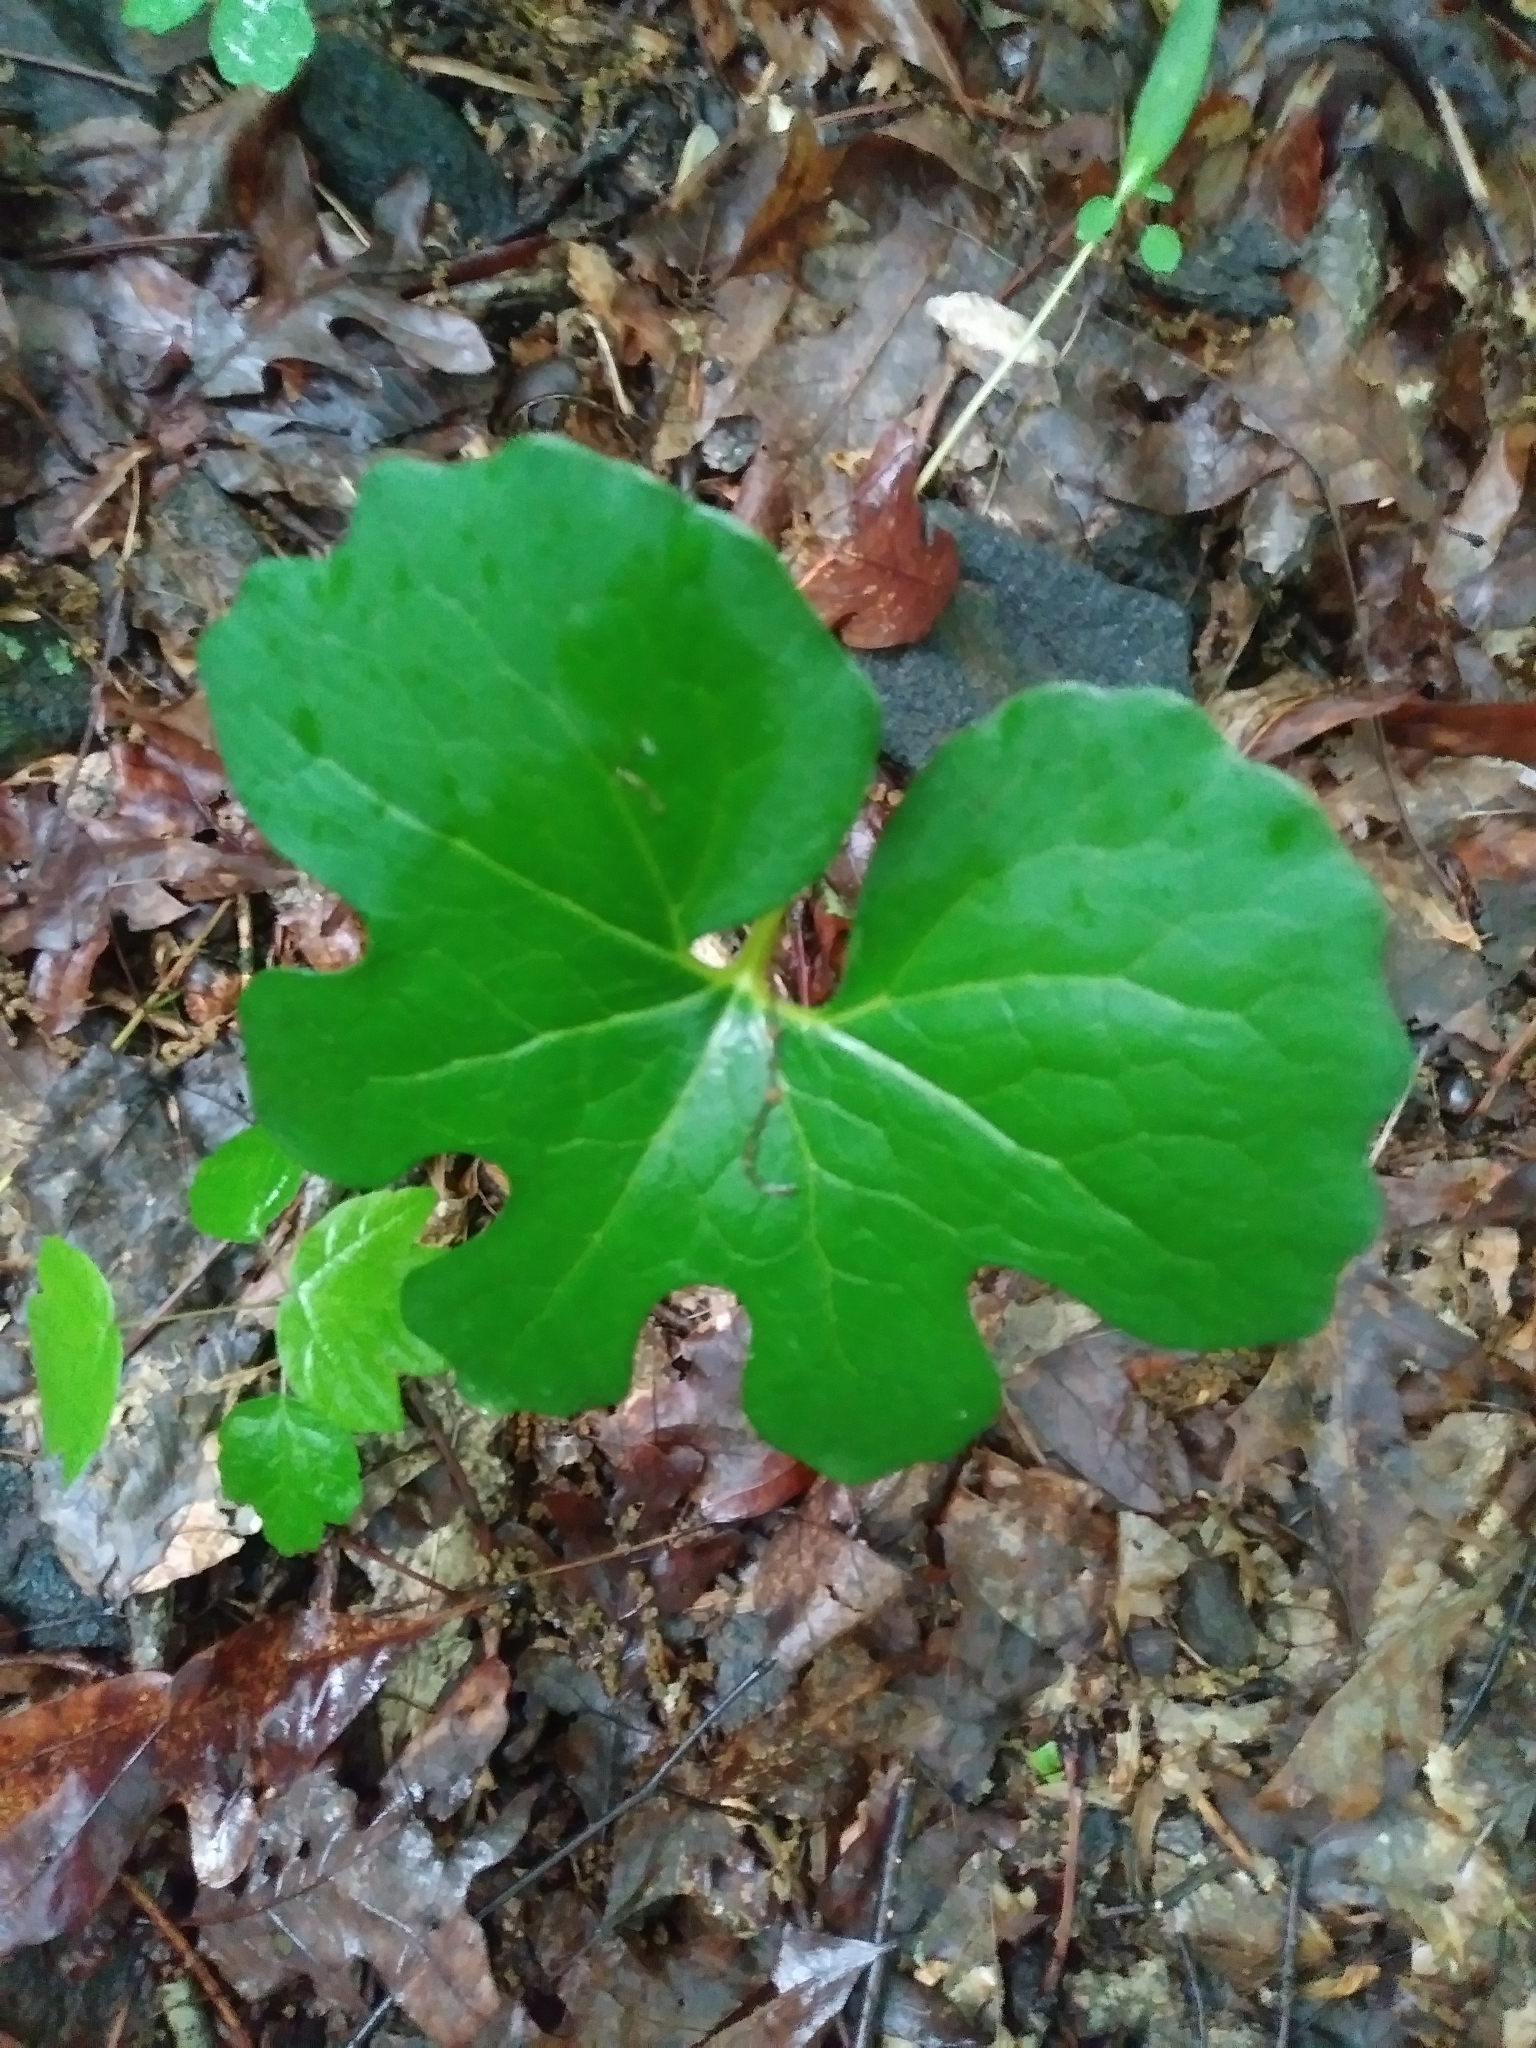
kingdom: Plantae
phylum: Tracheophyta
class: Magnoliopsida
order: Ranunculales
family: Papaveraceae
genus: Sanguinaria
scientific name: Sanguinaria canadensis
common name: Bloodroot
